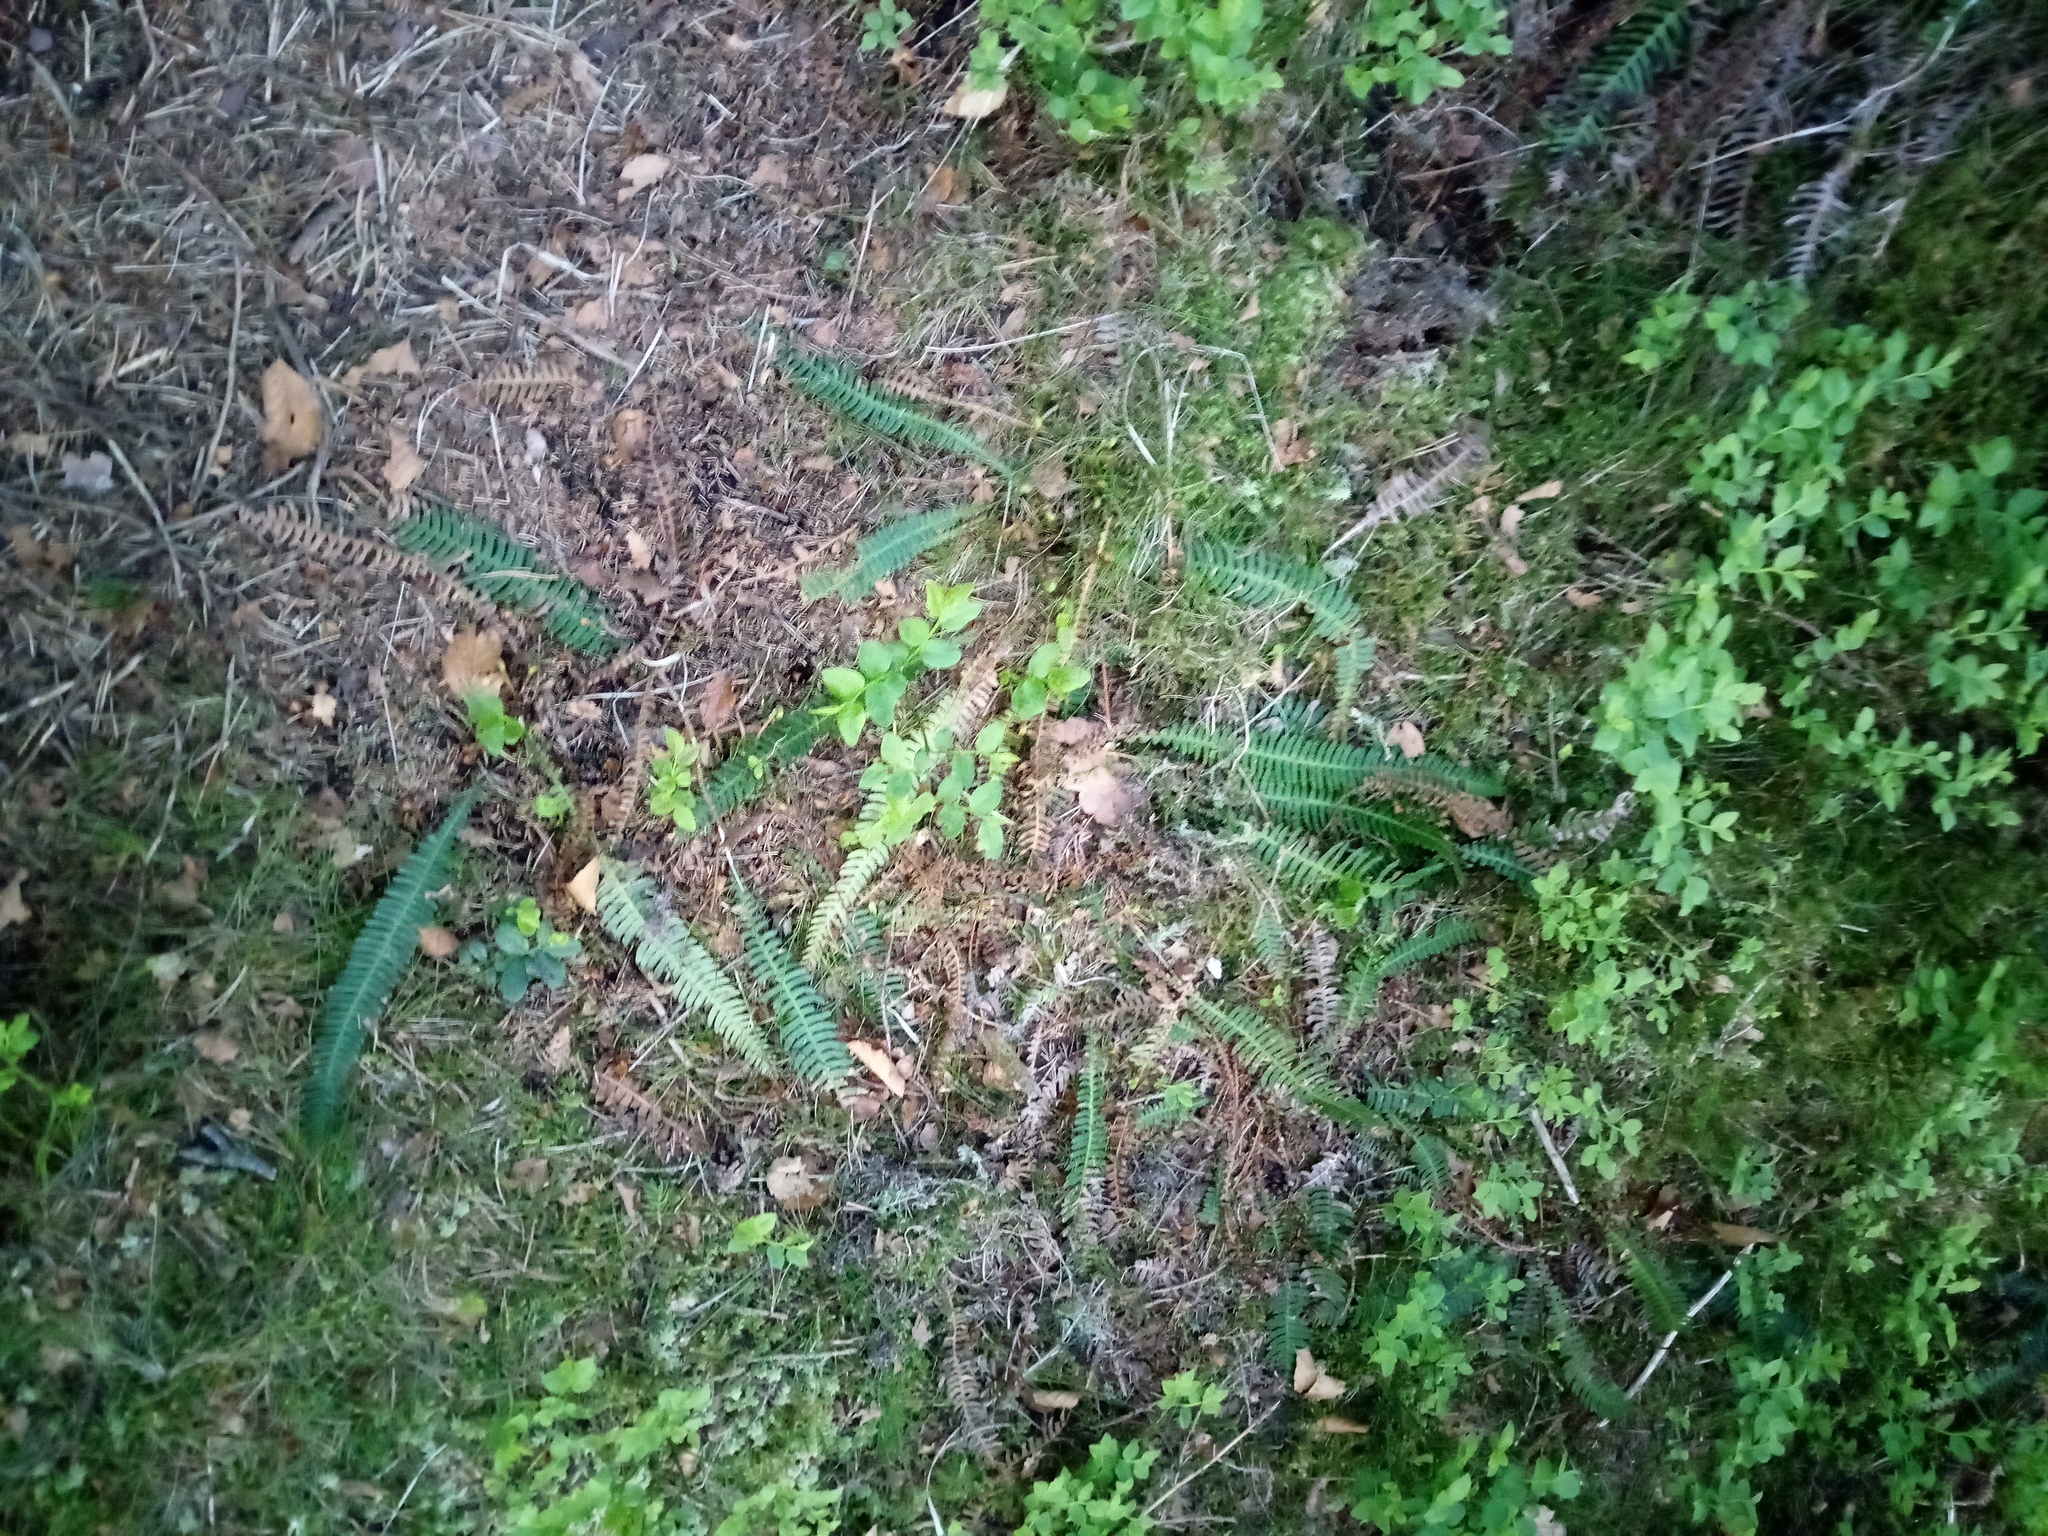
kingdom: Plantae
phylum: Tracheophyta
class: Polypodiopsida
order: Polypodiales
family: Blechnaceae
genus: Struthiopteris
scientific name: Struthiopteris spicant
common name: Deer fern
